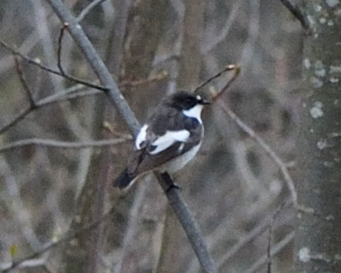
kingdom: Animalia
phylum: Chordata
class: Aves
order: Passeriformes
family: Muscicapidae
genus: Ficedula
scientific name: Ficedula hypoleuca
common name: European pied flycatcher
